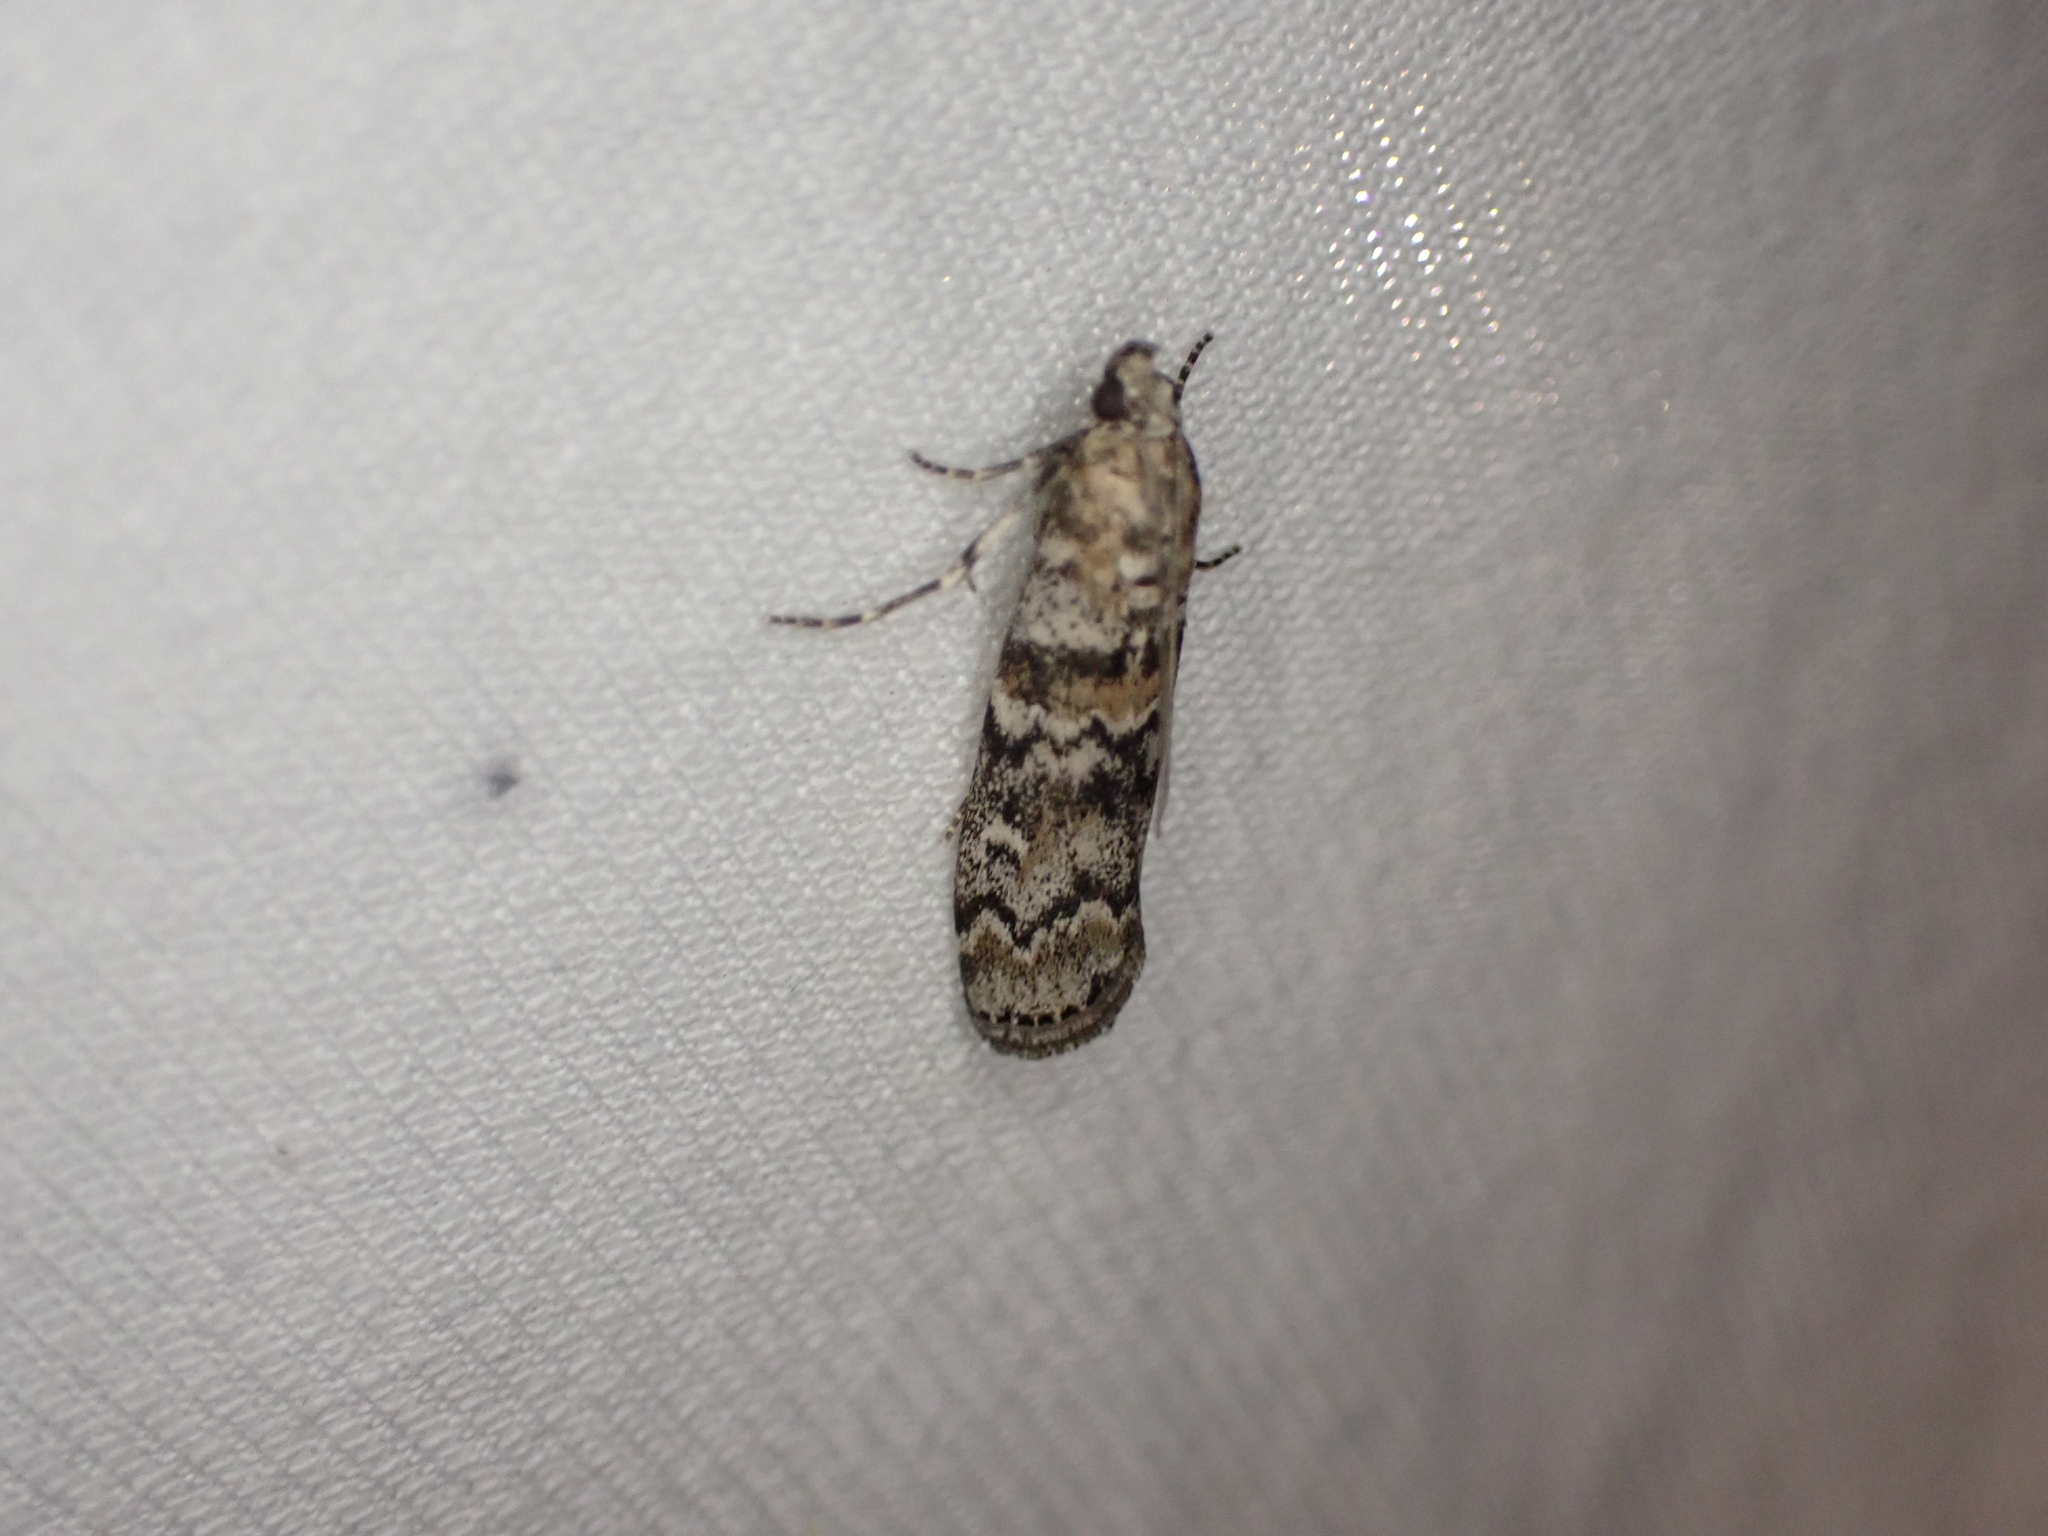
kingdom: Animalia
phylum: Arthropoda
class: Insecta
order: Lepidoptera
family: Pyralidae
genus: Dioryctria
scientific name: Dioryctria abietella
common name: Dark pine knot-horn
